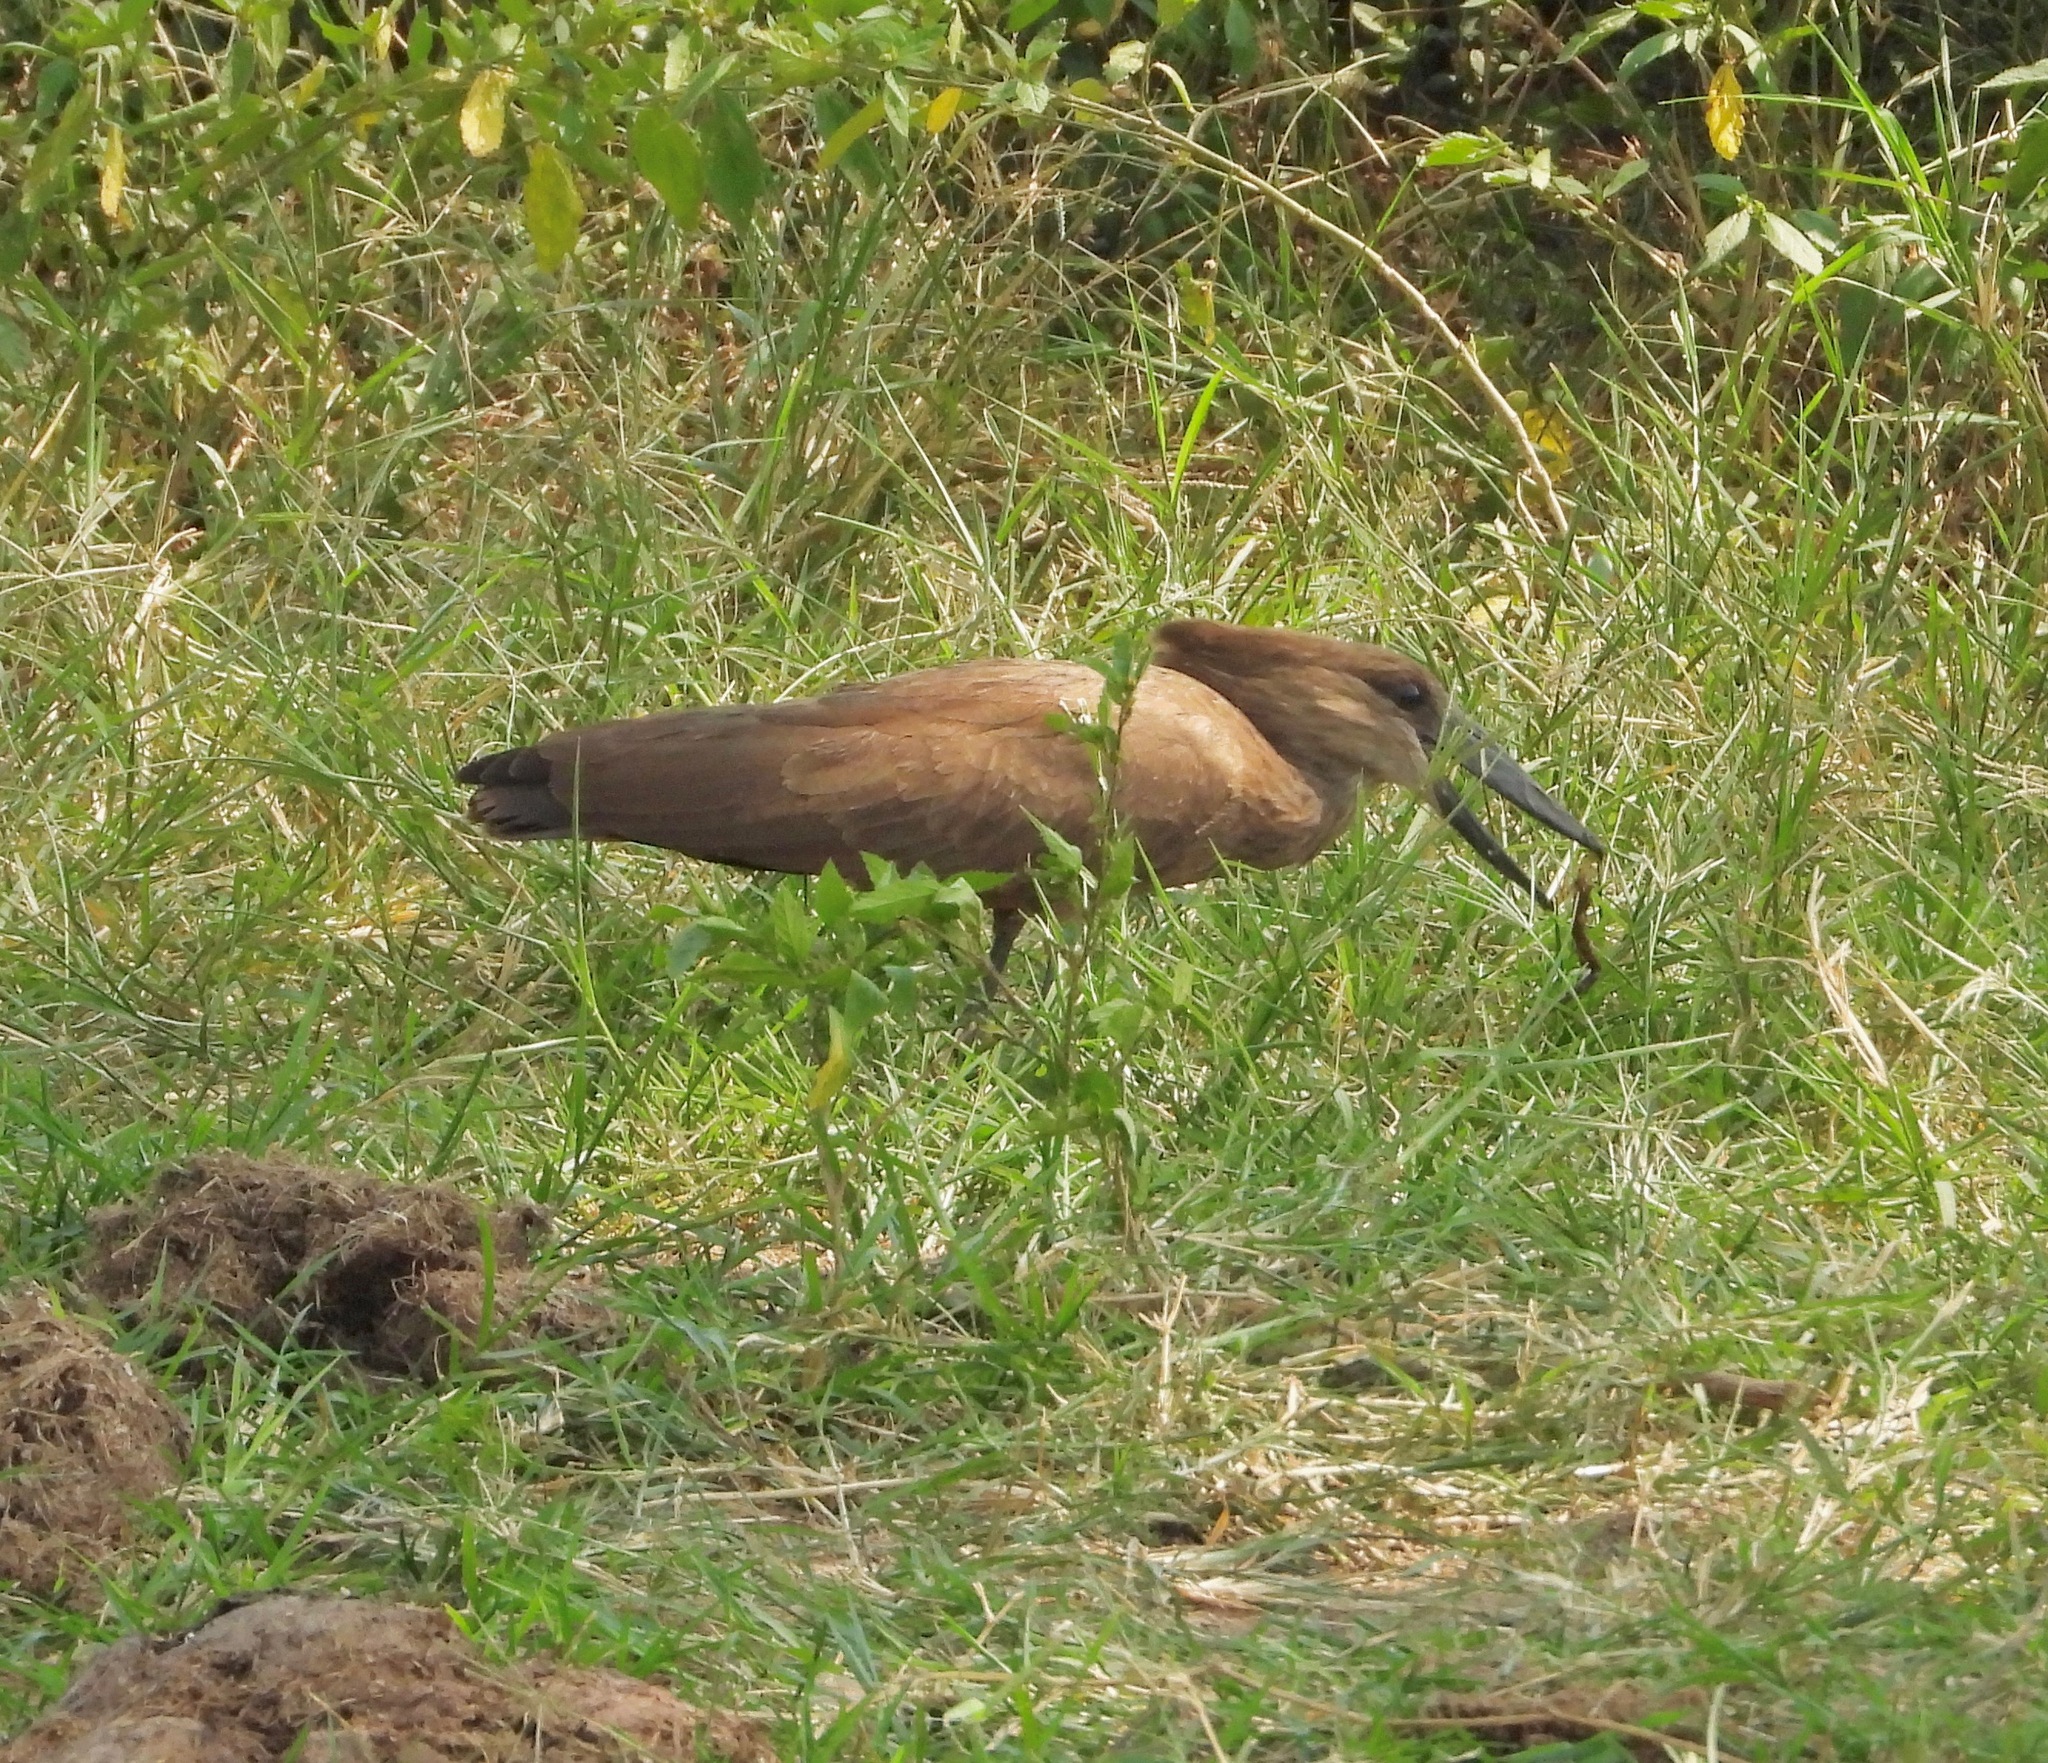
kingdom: Animalia
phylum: Chordata
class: Aves
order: Pelecaniformes
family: Scopidae
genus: Scopus
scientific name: Scopus umbretta
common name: Hamerkop
